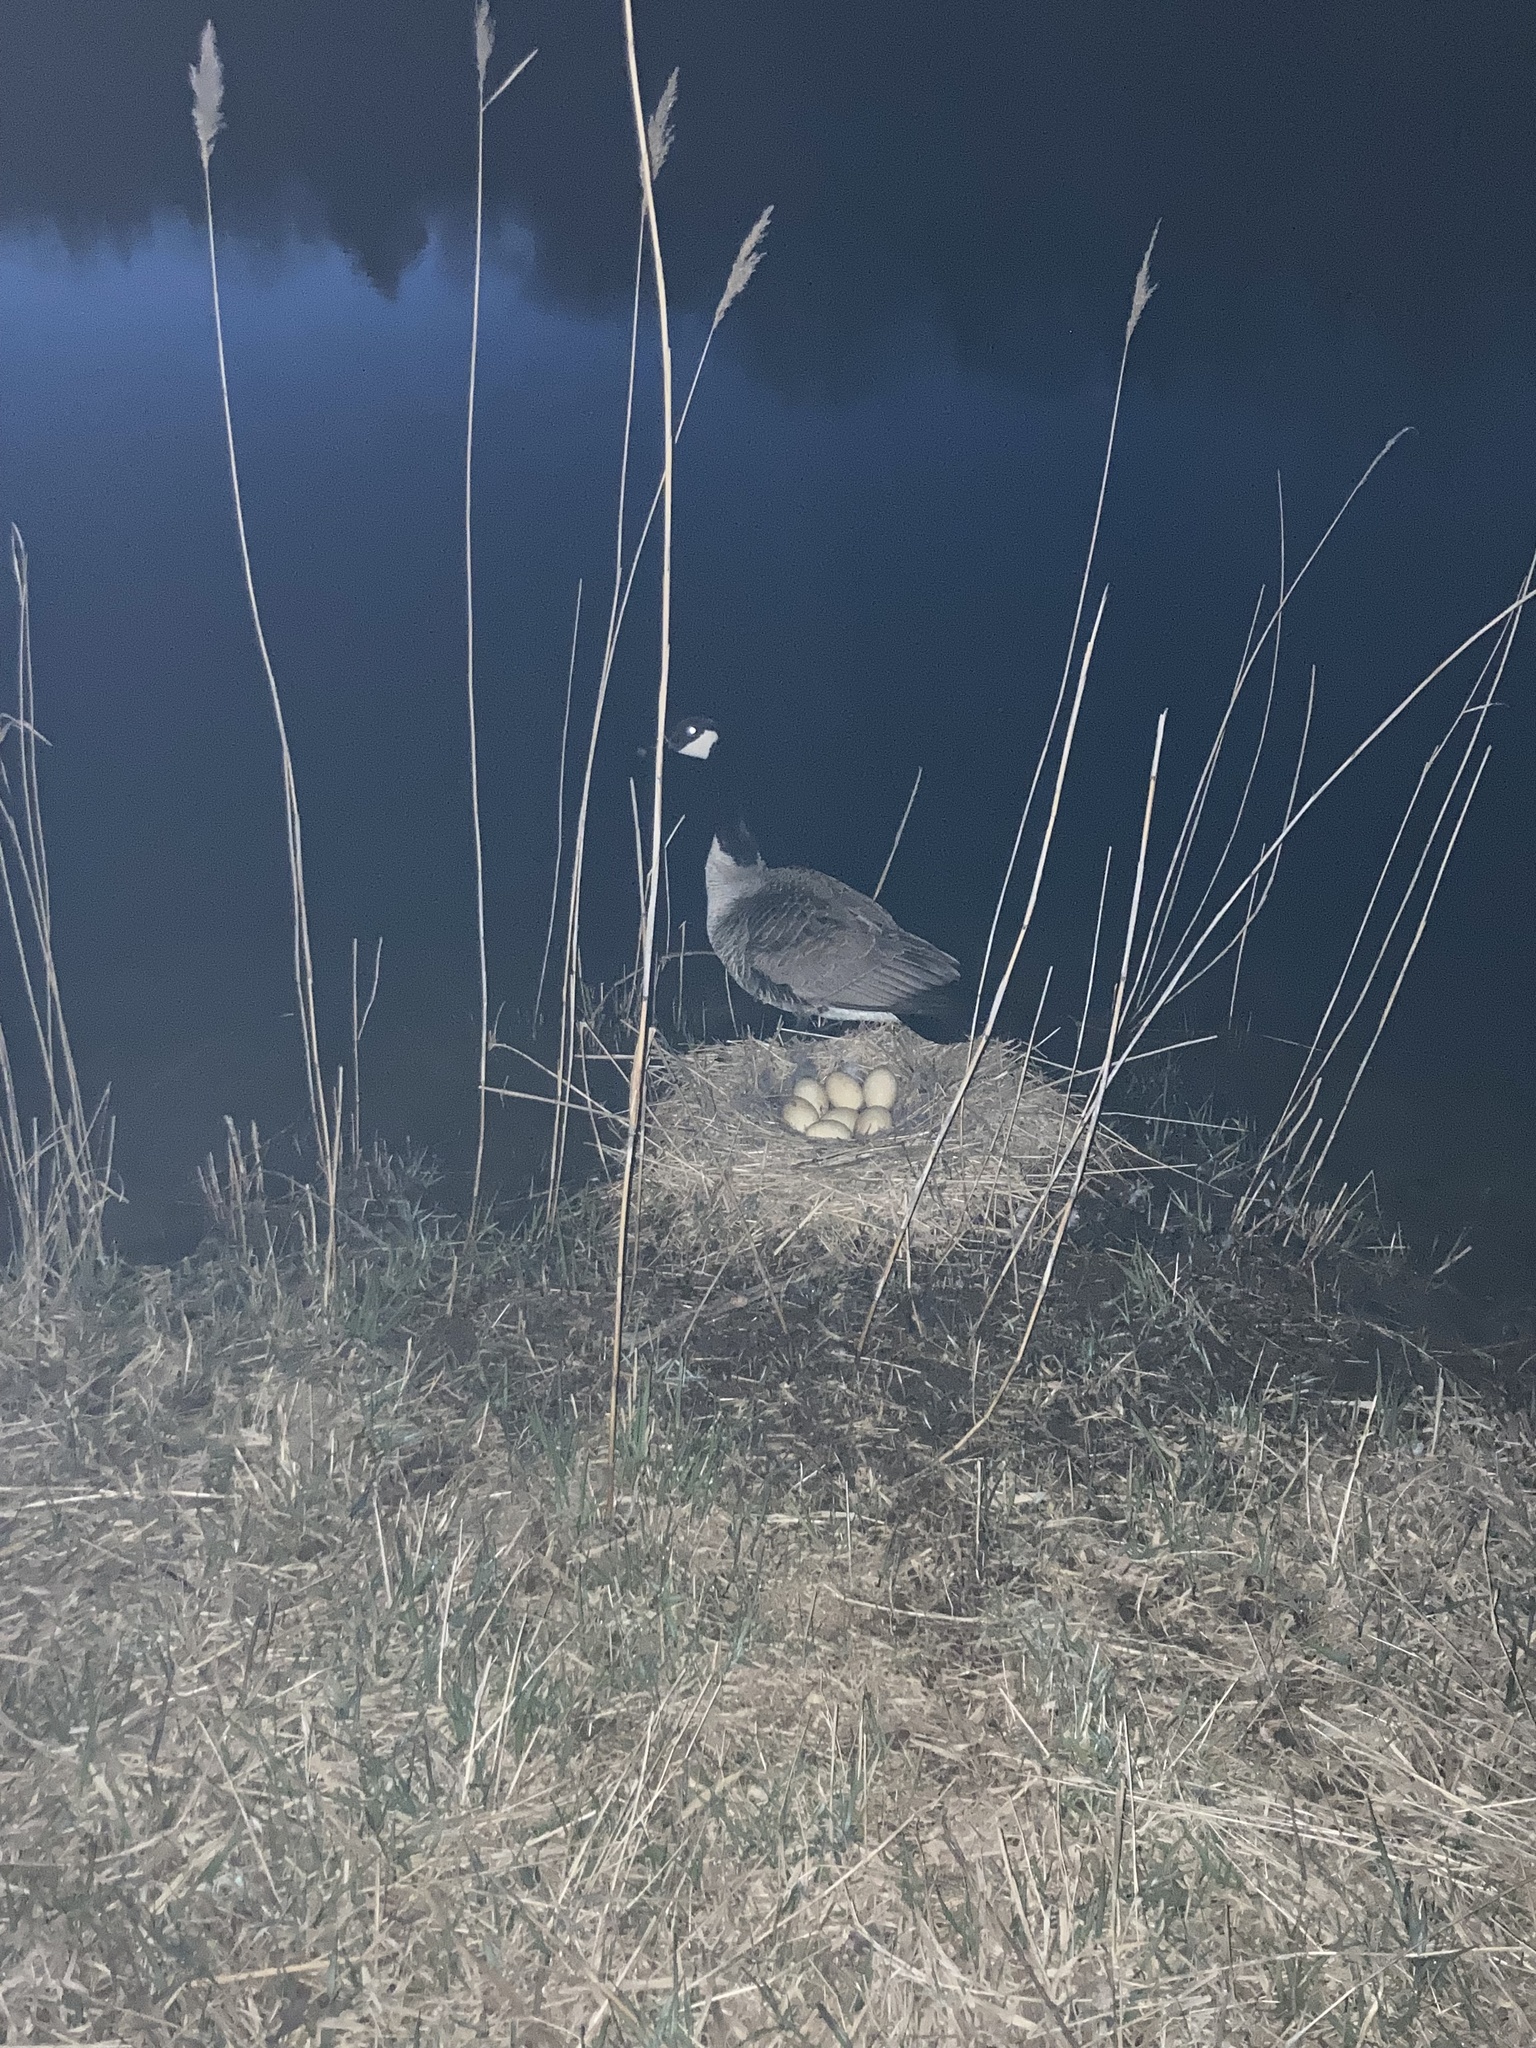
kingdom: Animalia
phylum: Chordata
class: Aves
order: Anseriformes
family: Anatidae
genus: Branta
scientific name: Branta canadensis
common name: Canada goose
